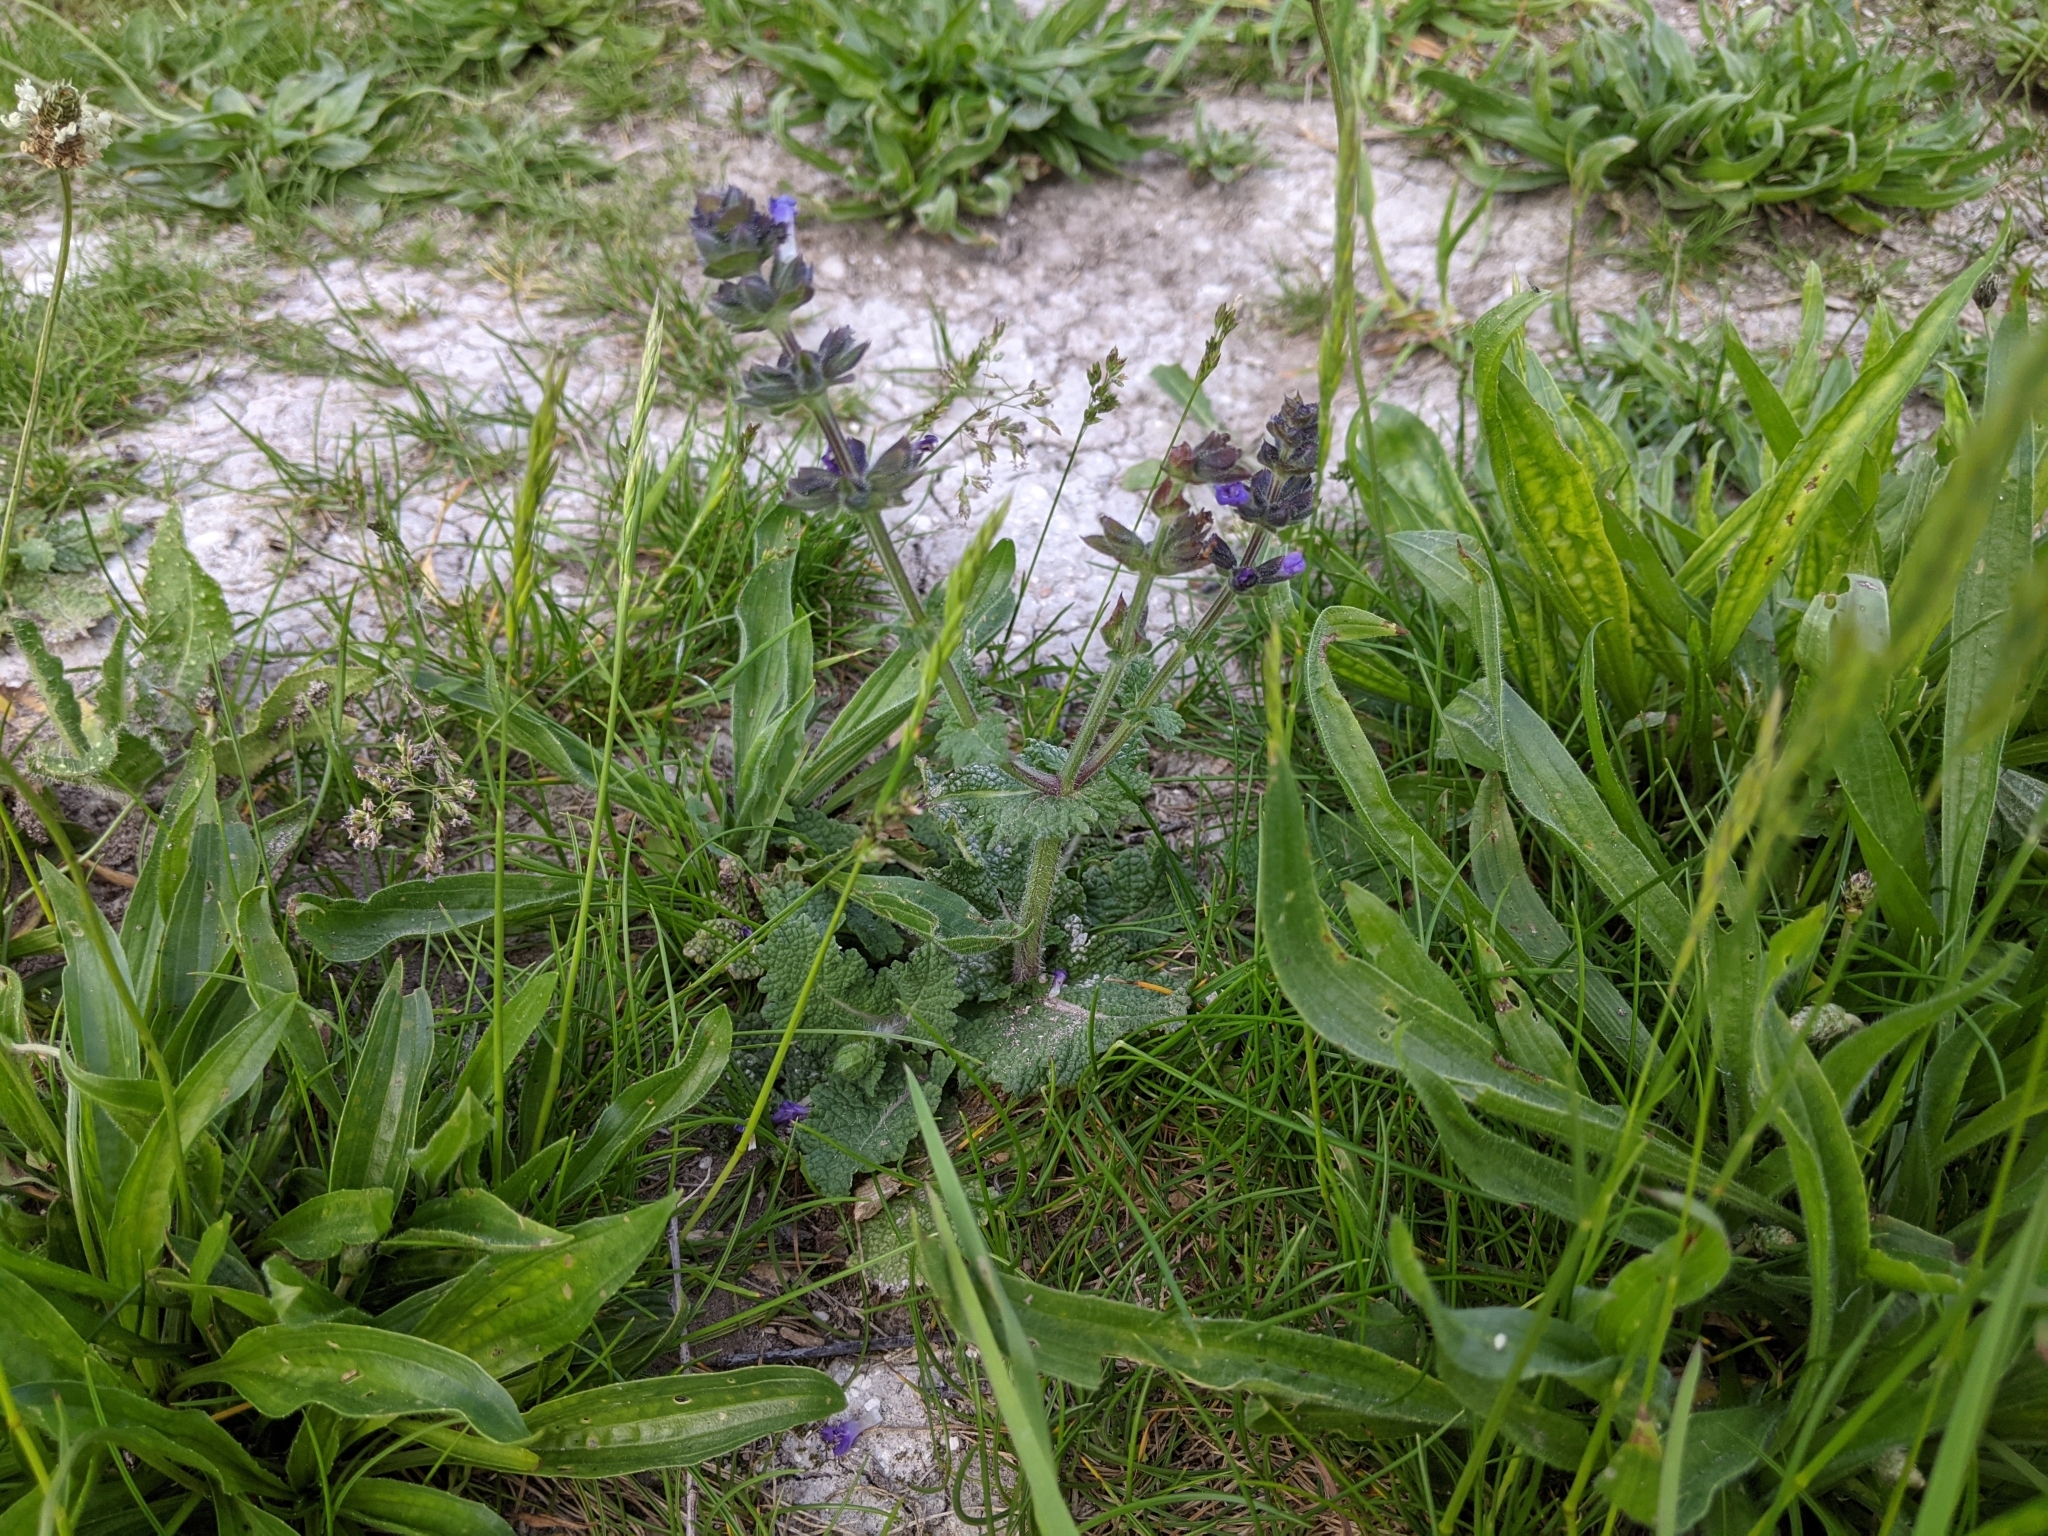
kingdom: Plantae
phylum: Tracheophyta
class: Magnoliopsida
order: Lamiales
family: Lamiaceae
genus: Salvia
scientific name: Salvia verbenaca
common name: Wild clary
